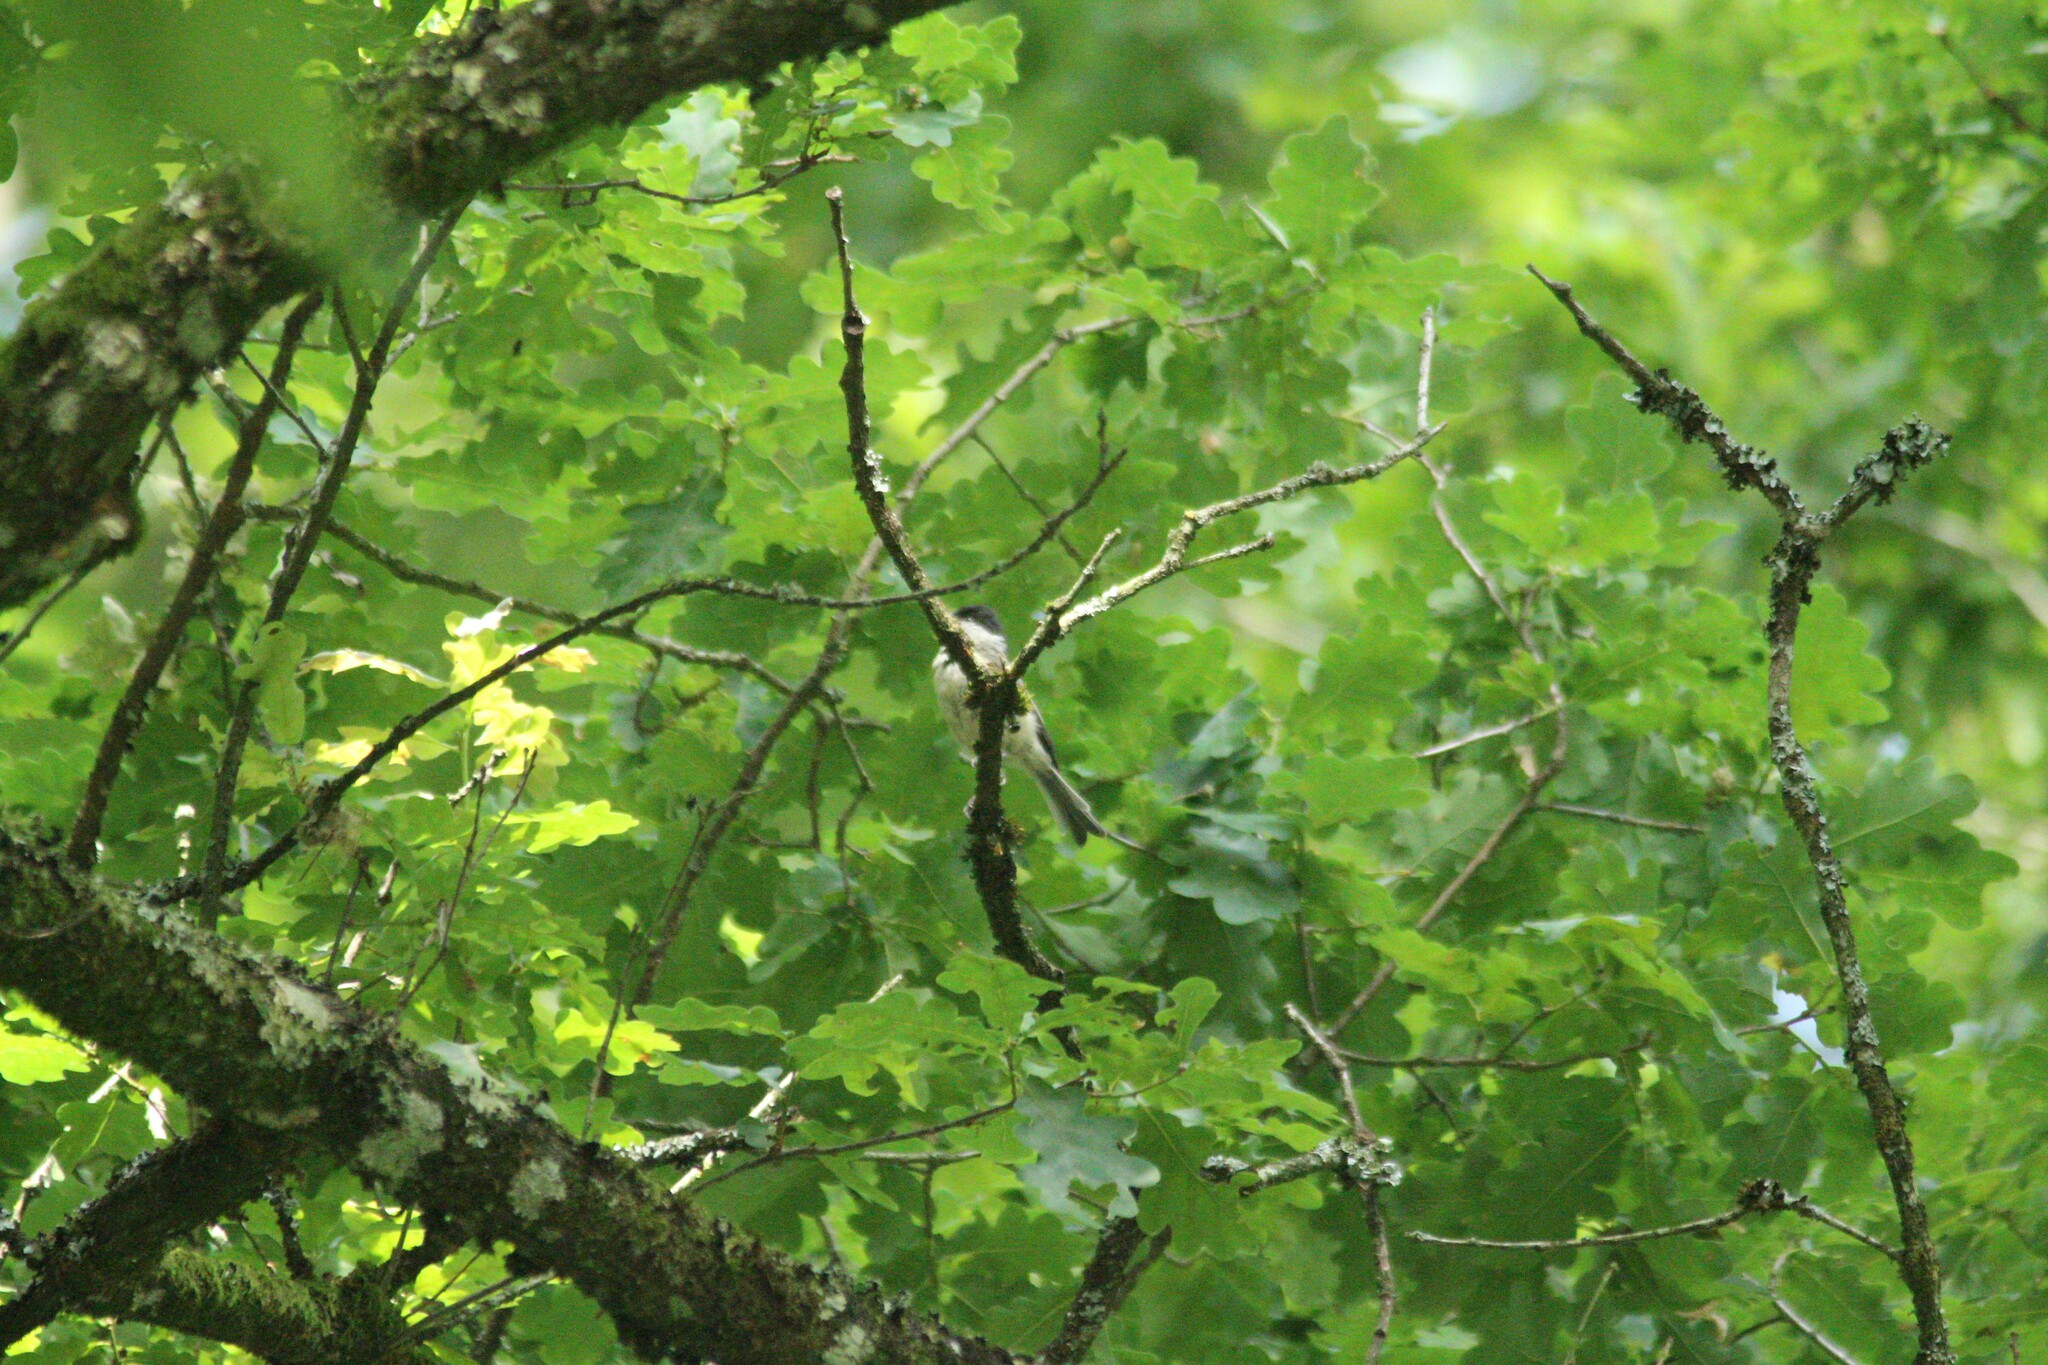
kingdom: Animalia
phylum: Chordata
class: Aves
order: Passeriformes
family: Paridae
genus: Poecile
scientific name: Poecile palustris
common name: Marsh tit
